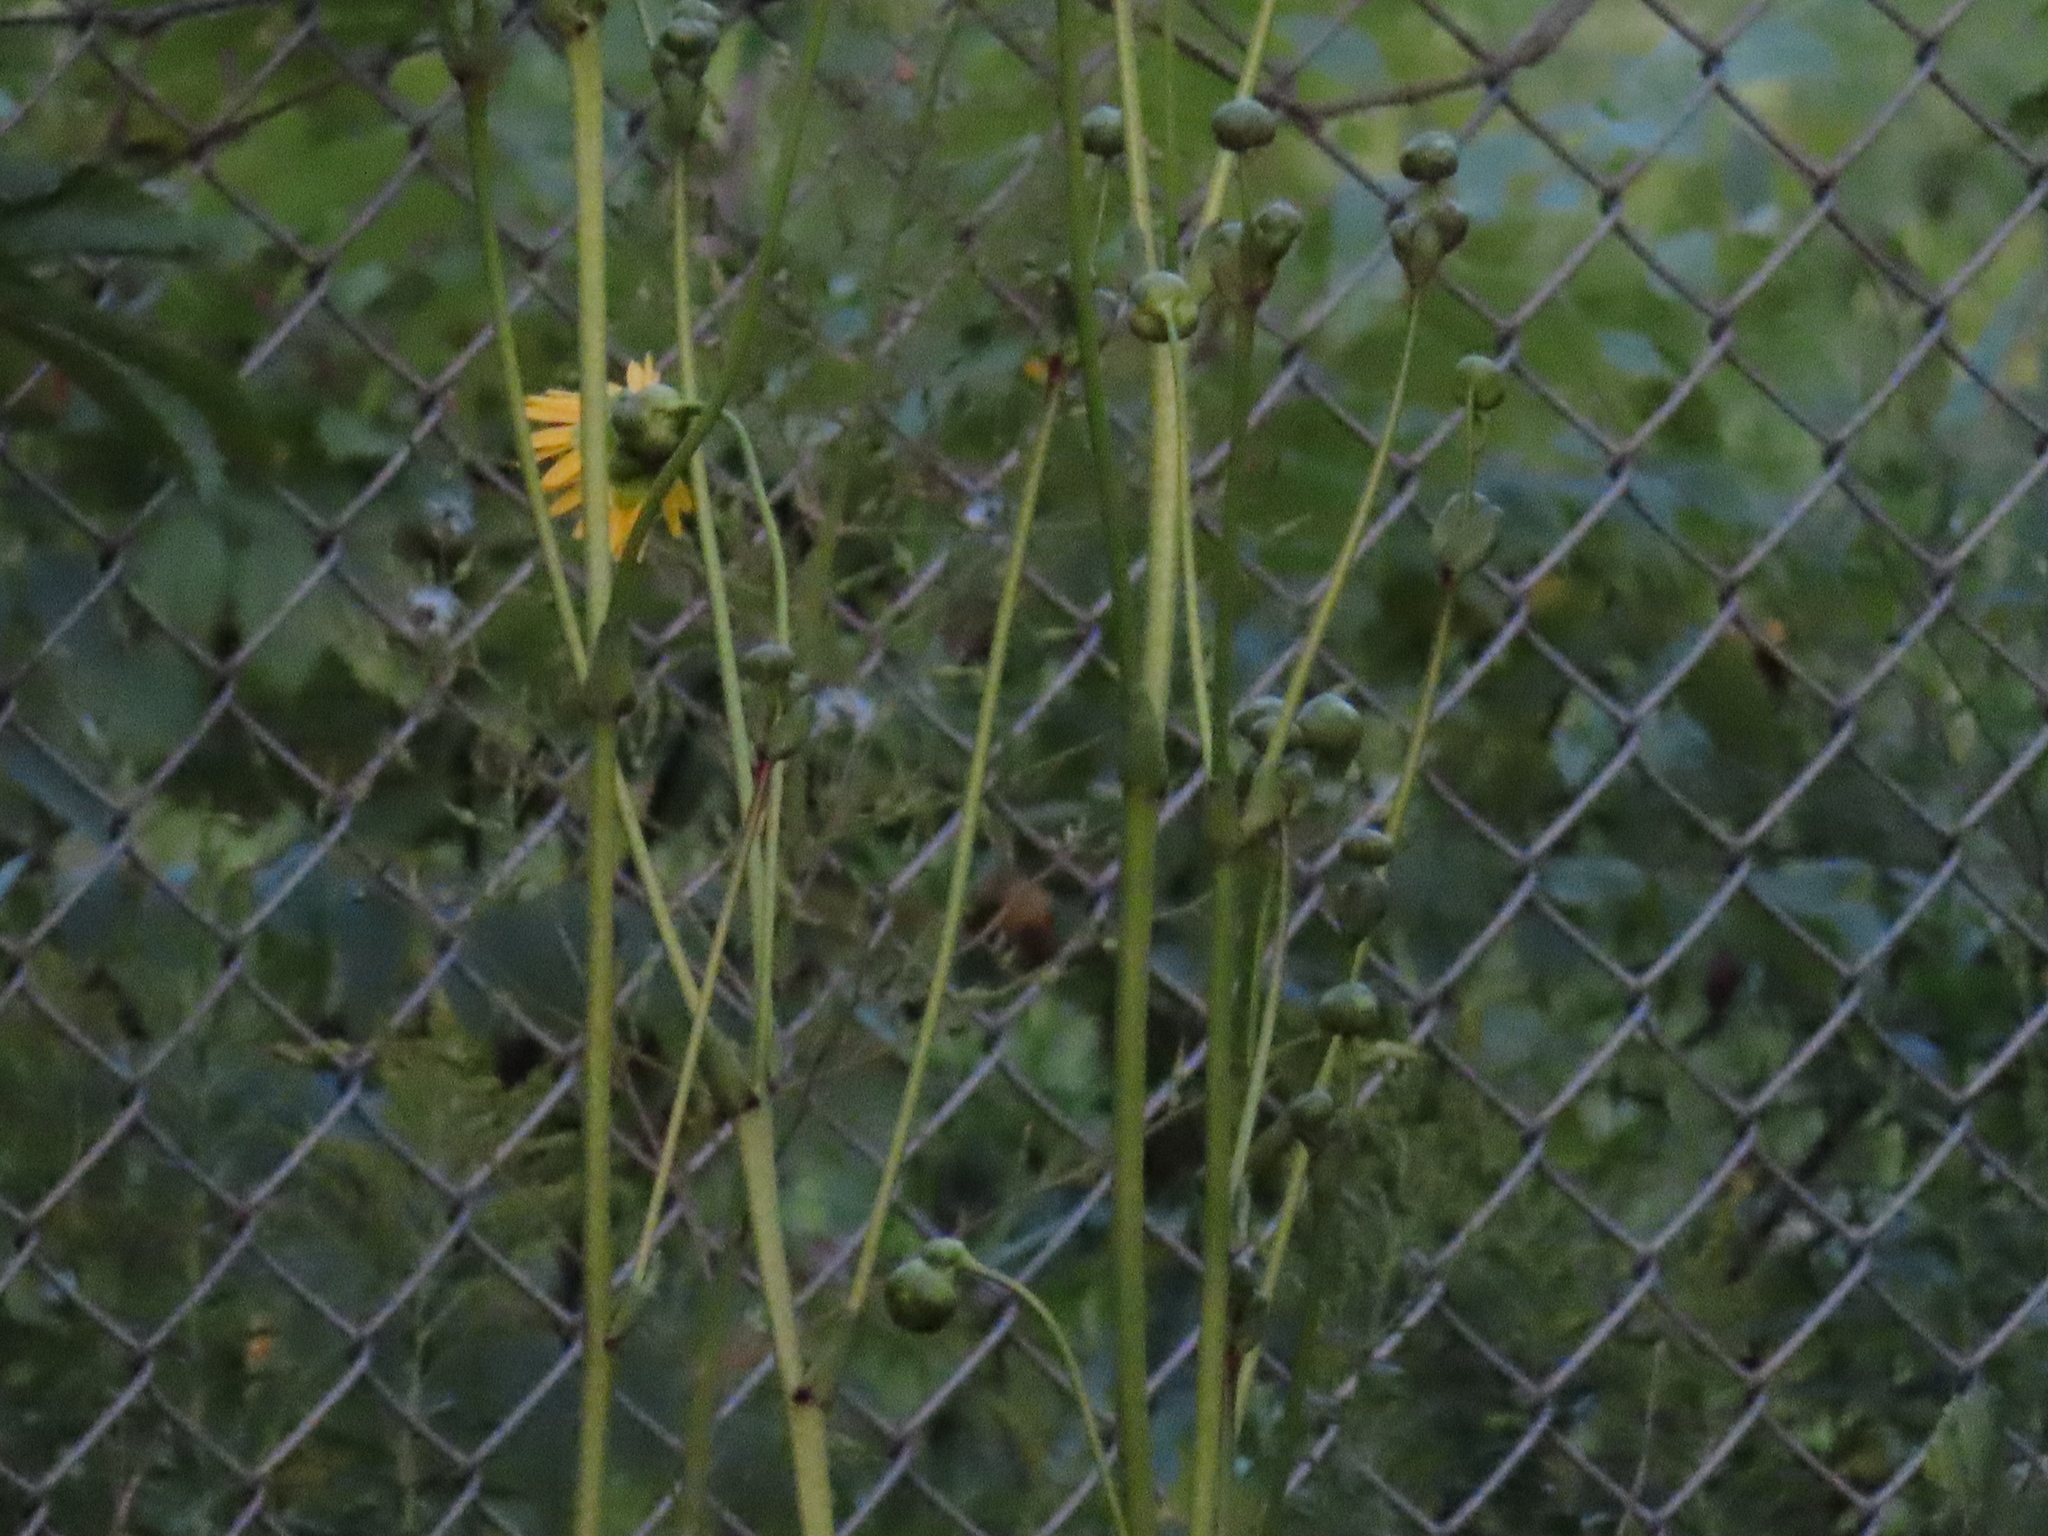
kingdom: Plantae
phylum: Tracheophyta
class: Magnoliopsida
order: Asterales
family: Asteraceae
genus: Silphium
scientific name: Silphium terebinthinaceum
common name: Basal-leaf rosinweed
